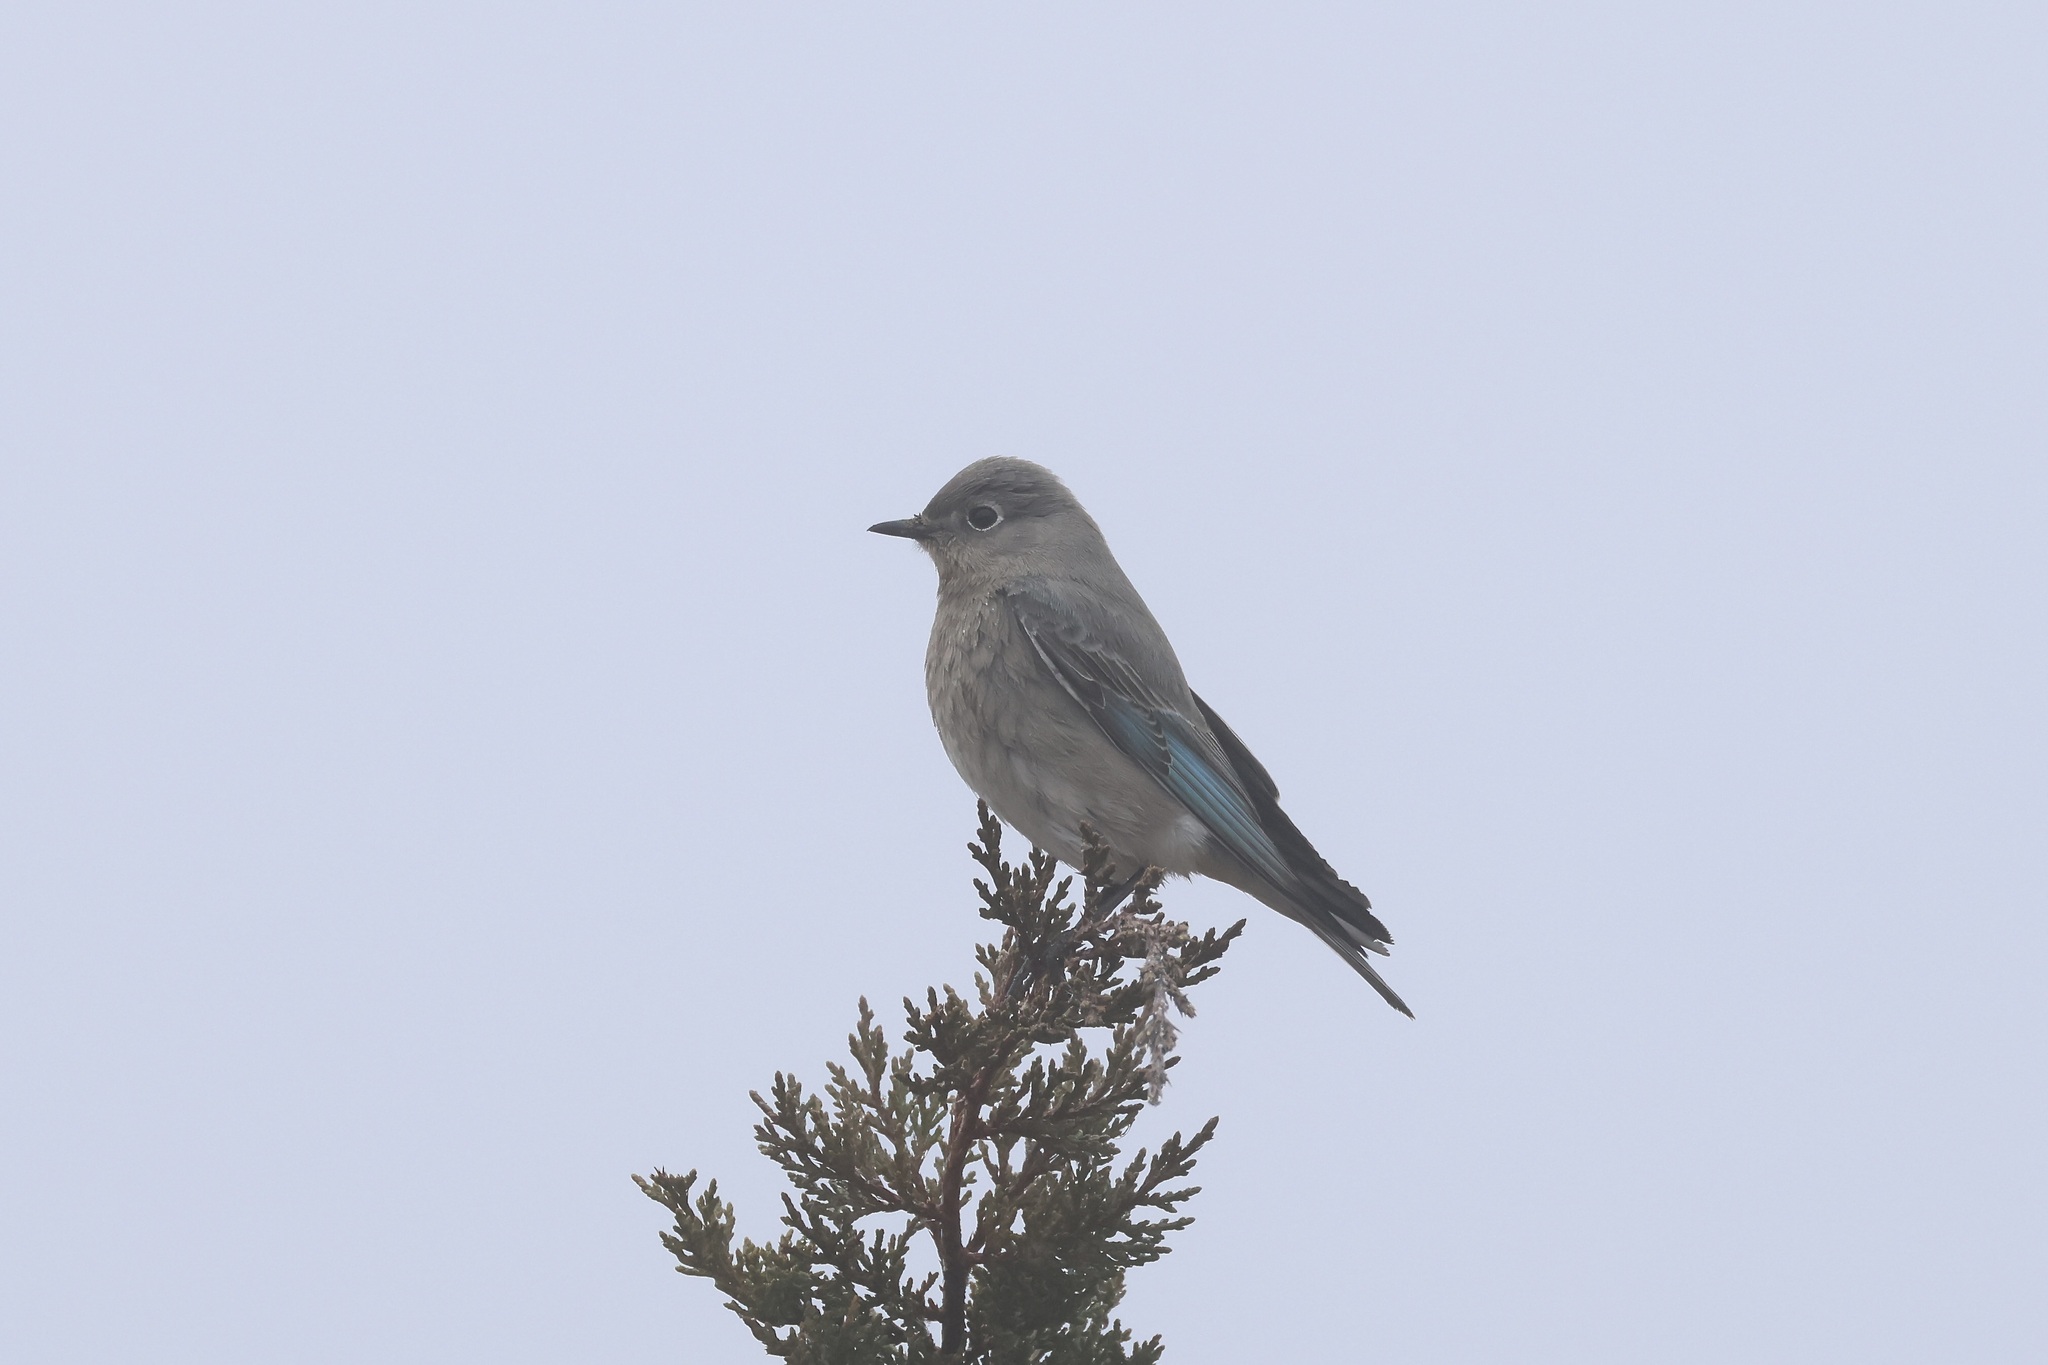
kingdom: Animalia
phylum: Chordata
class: Aves
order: Passeriformes
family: Turdidae
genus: Sialia
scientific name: Sialia currucoides
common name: Mountain bluebird
